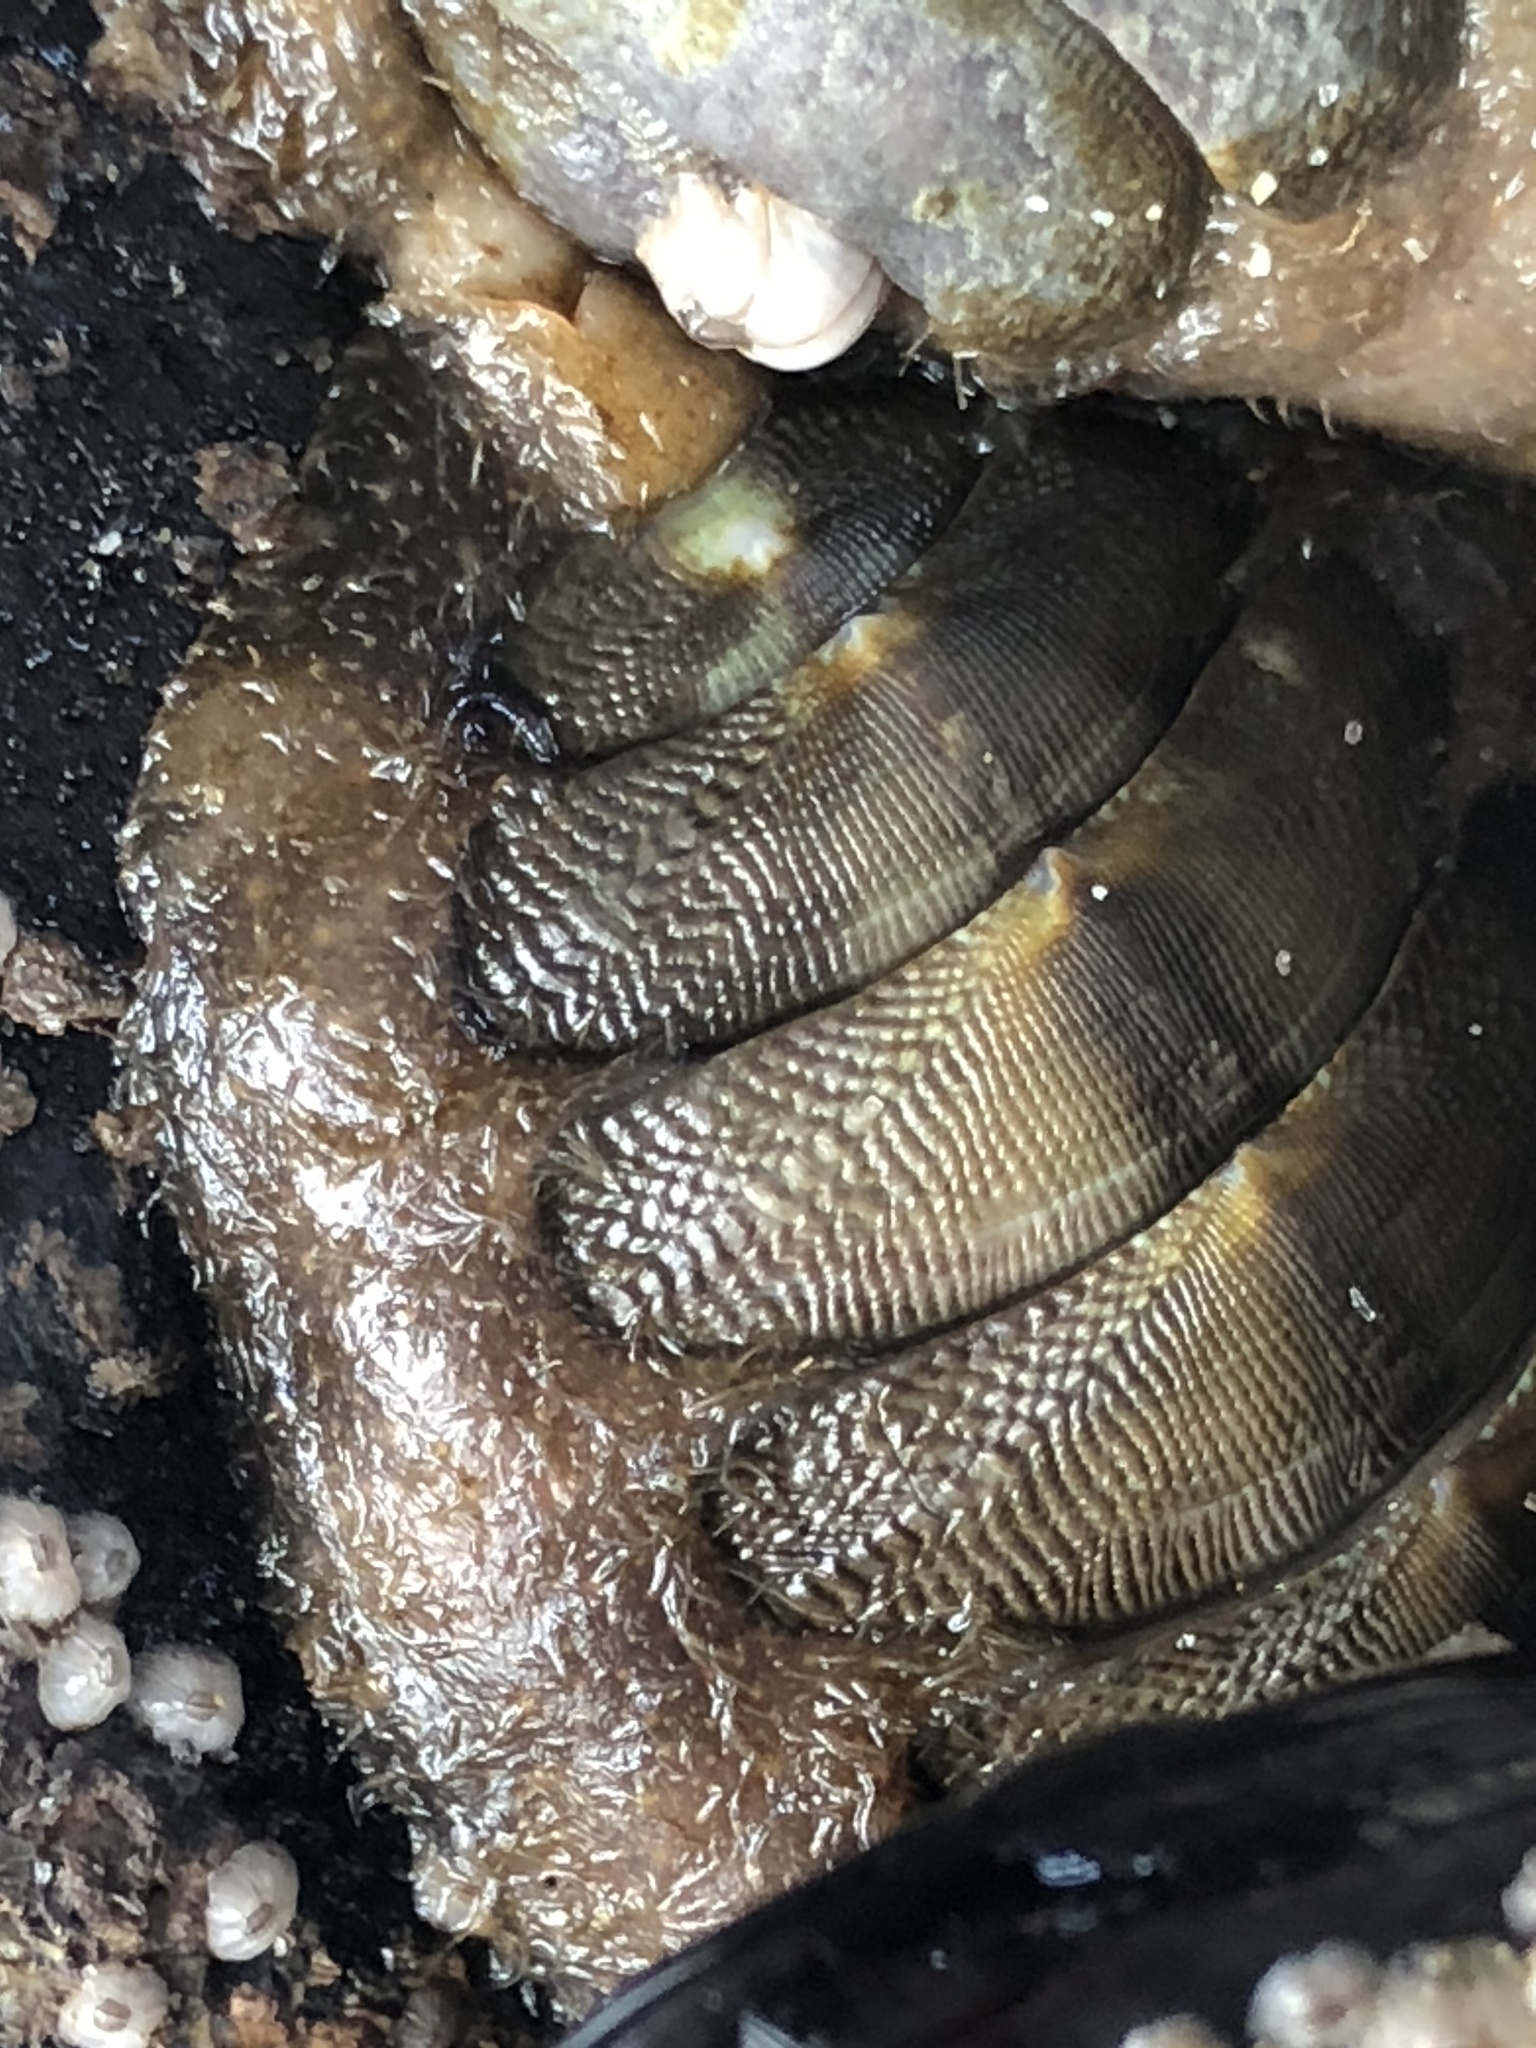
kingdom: Animalia
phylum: Mollusca
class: Polyplacophora
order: Chitonida
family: Mopaliidae
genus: Mopalia
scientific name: Mopalia hindsii
